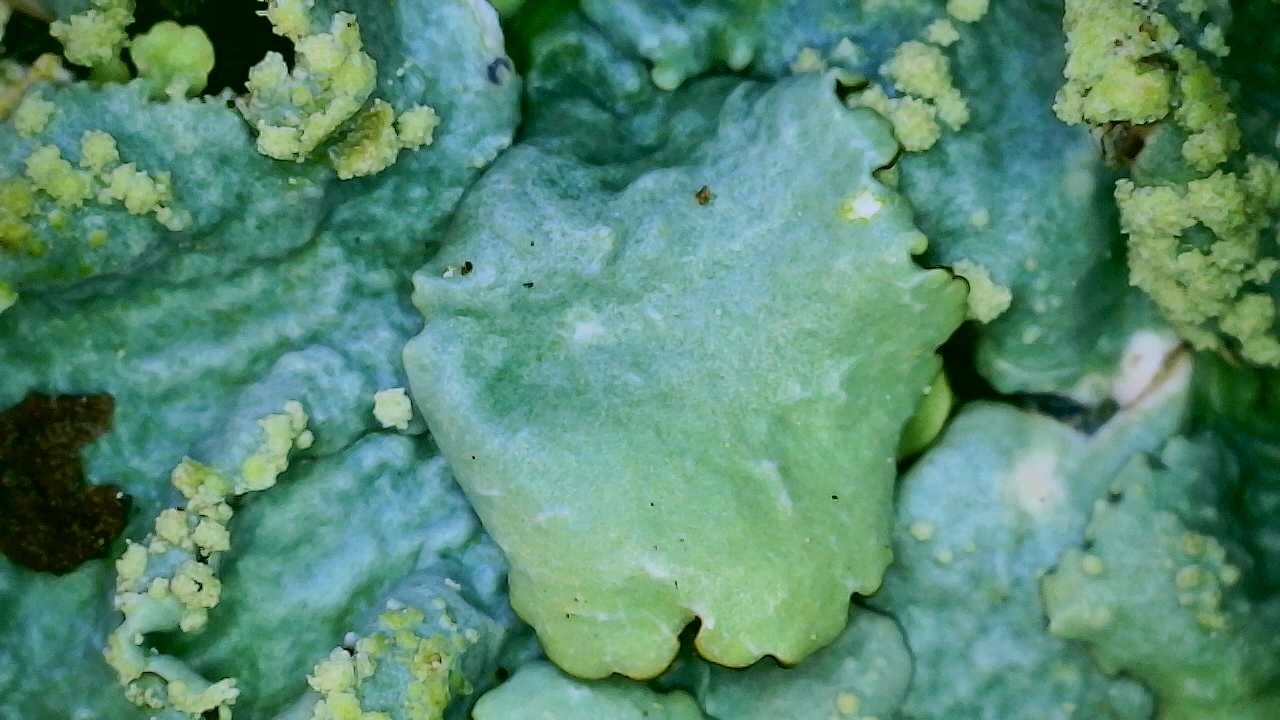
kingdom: Fungi
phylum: Ascomycota
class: Lecanoromycetes
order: Lecanorales
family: Parmeliaceae
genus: Canoparmelia
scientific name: Canoparmelia texana
